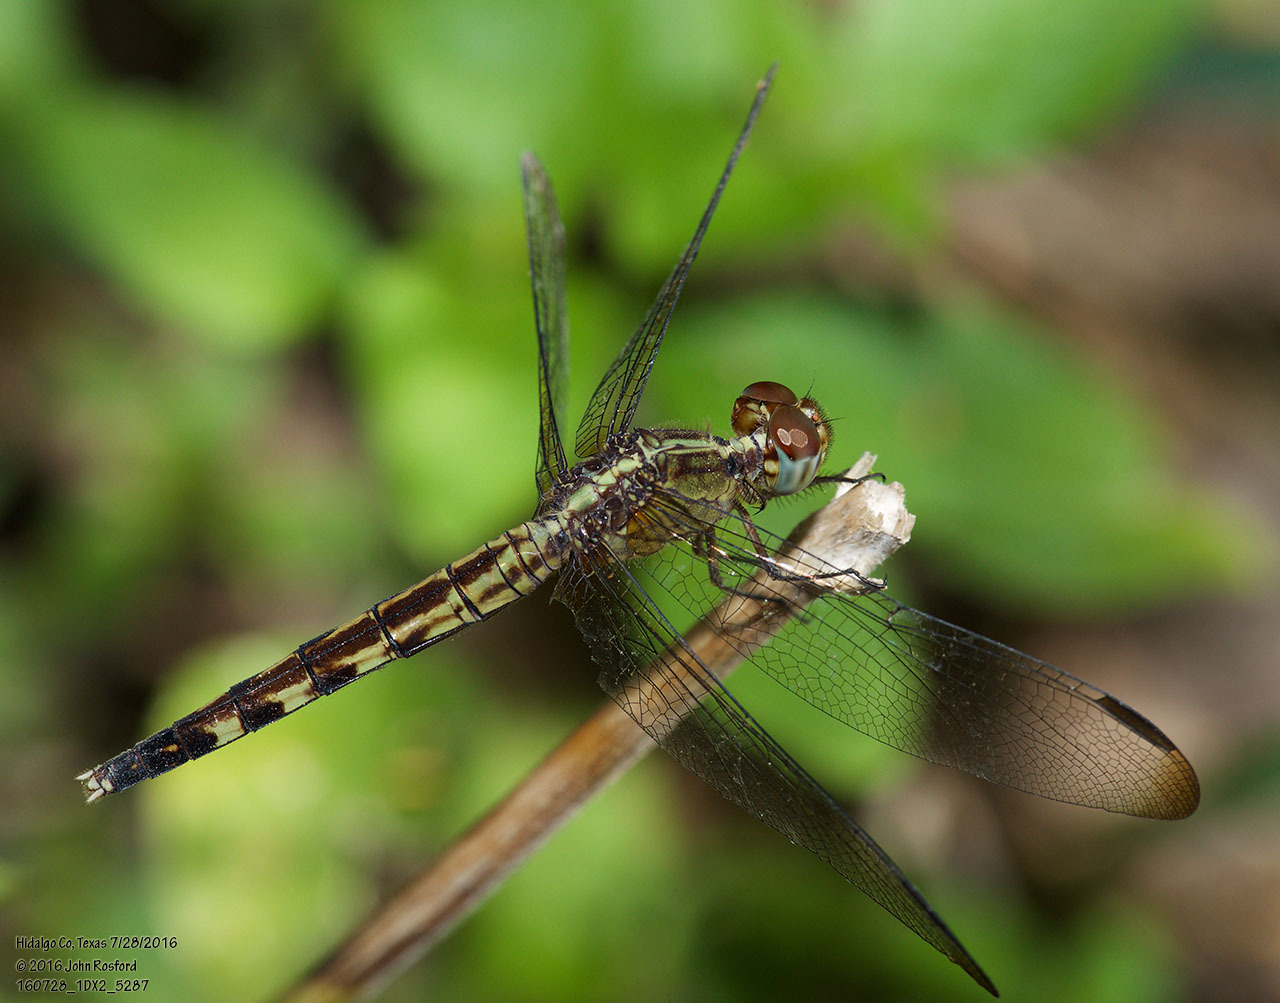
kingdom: Animalia
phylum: Arthropoda
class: Insecta
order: Odonata
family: Libellulidae
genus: Erythrodiplax
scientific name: Erythrodiplax umbrata
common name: Band-winged dragonlet
